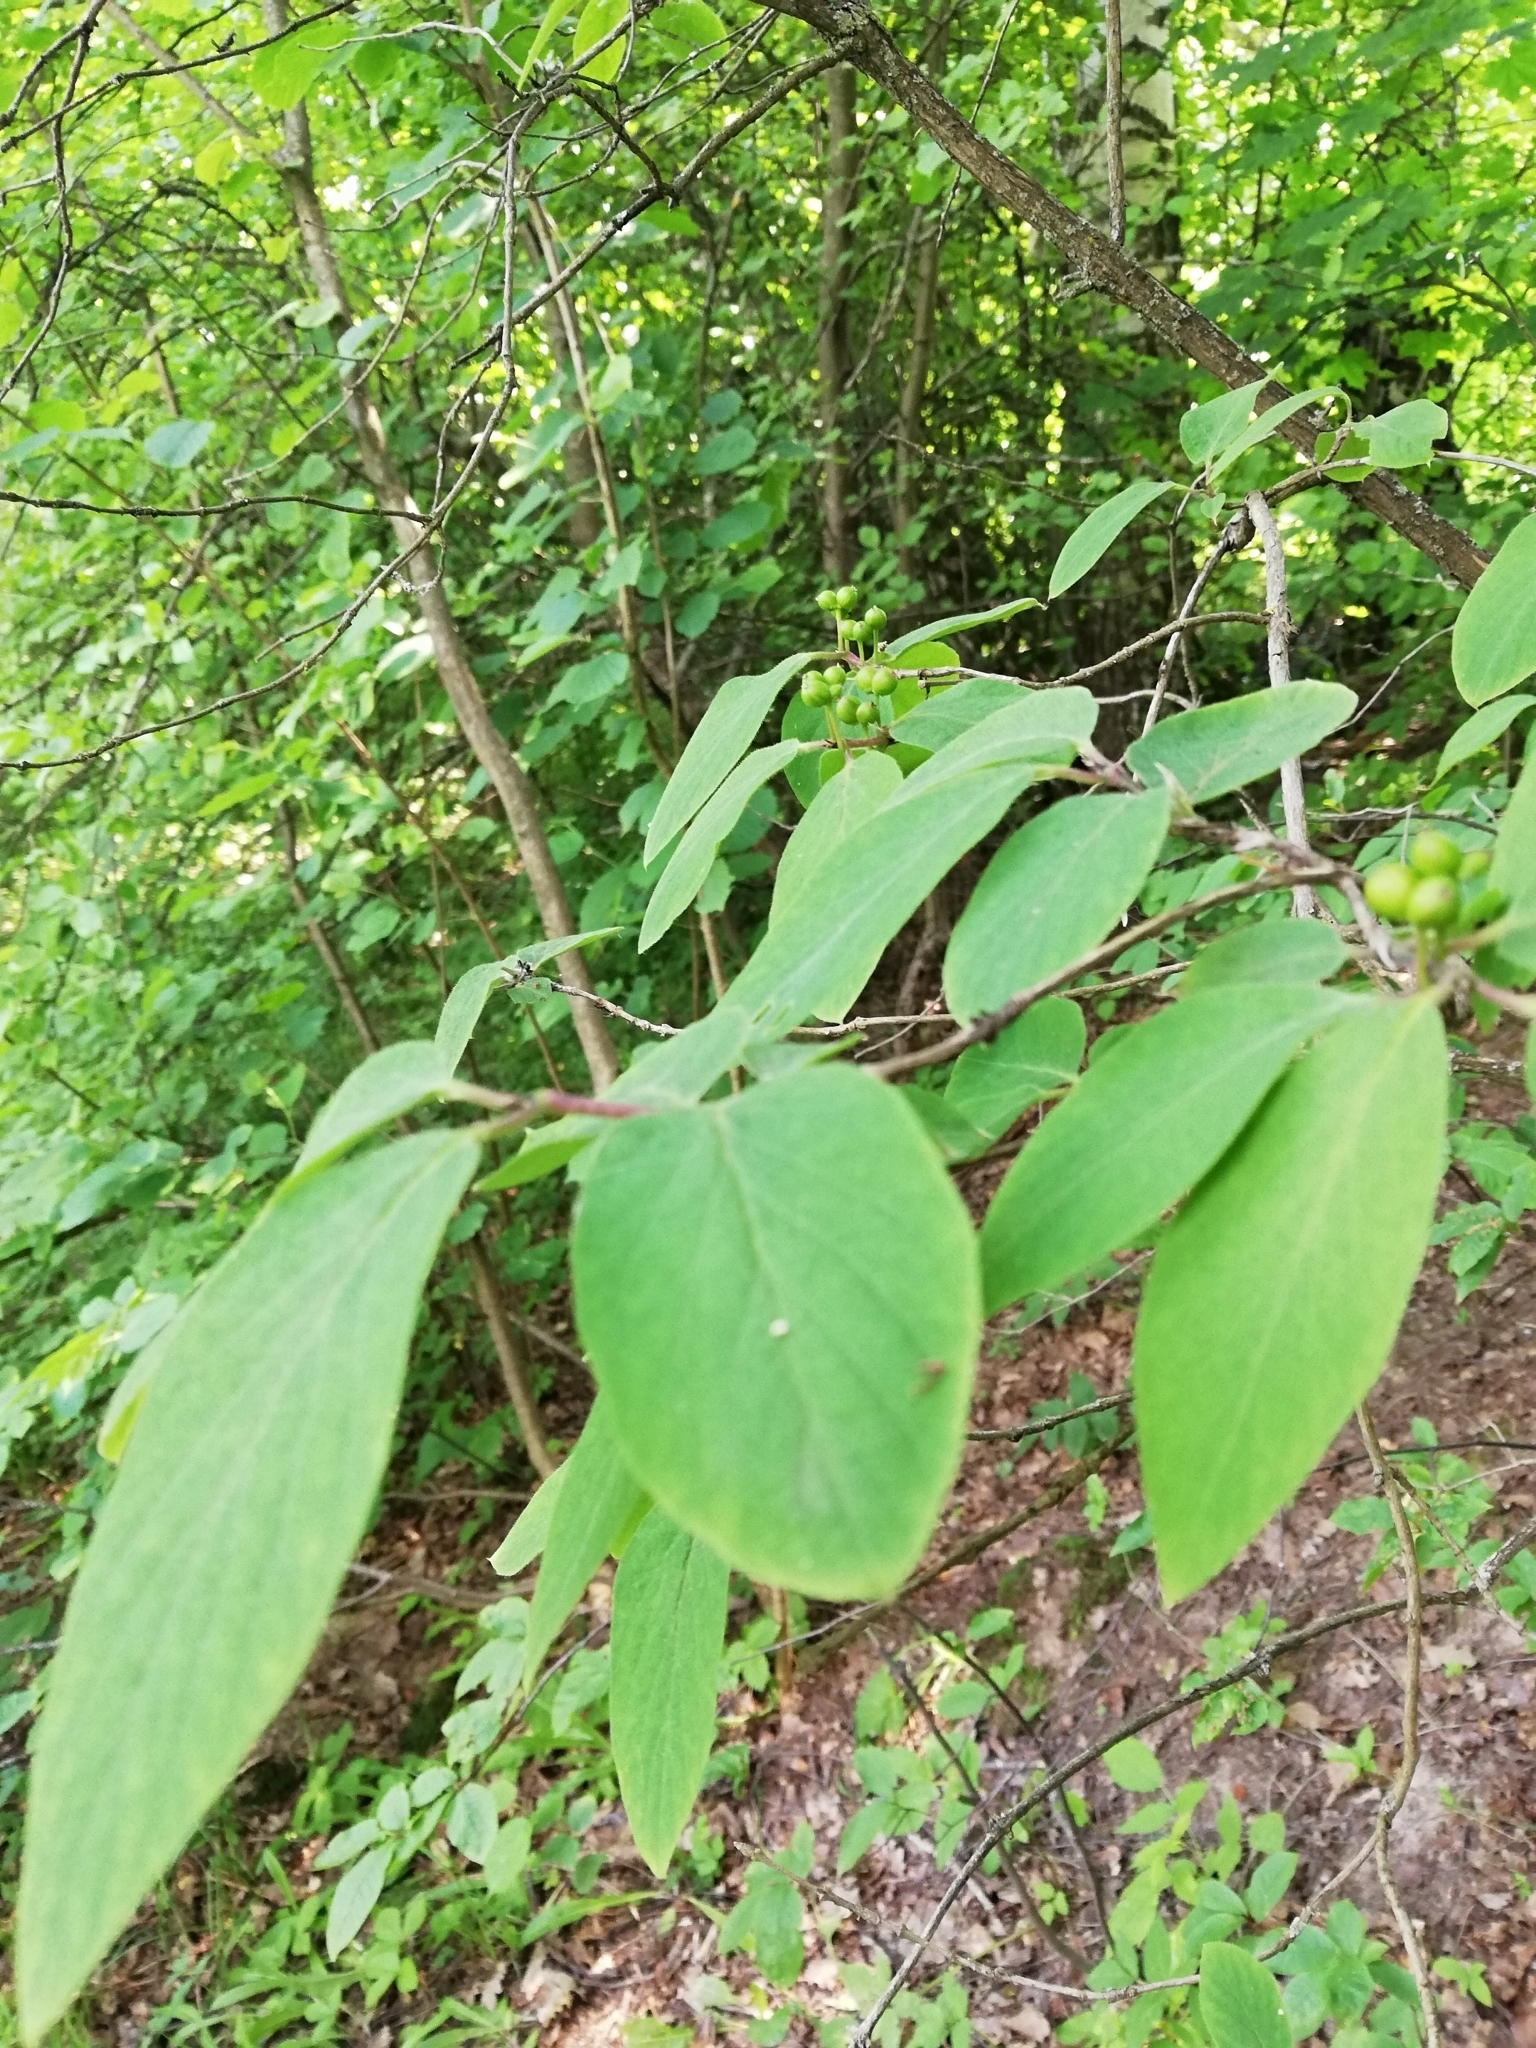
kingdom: Plantae
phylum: Tracheophyta
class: Magnoliopsida
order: Dipsacales
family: Caprifoliaceae
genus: Lonicera
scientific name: Lonicera xylosteum
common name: Fly honeysuckle
